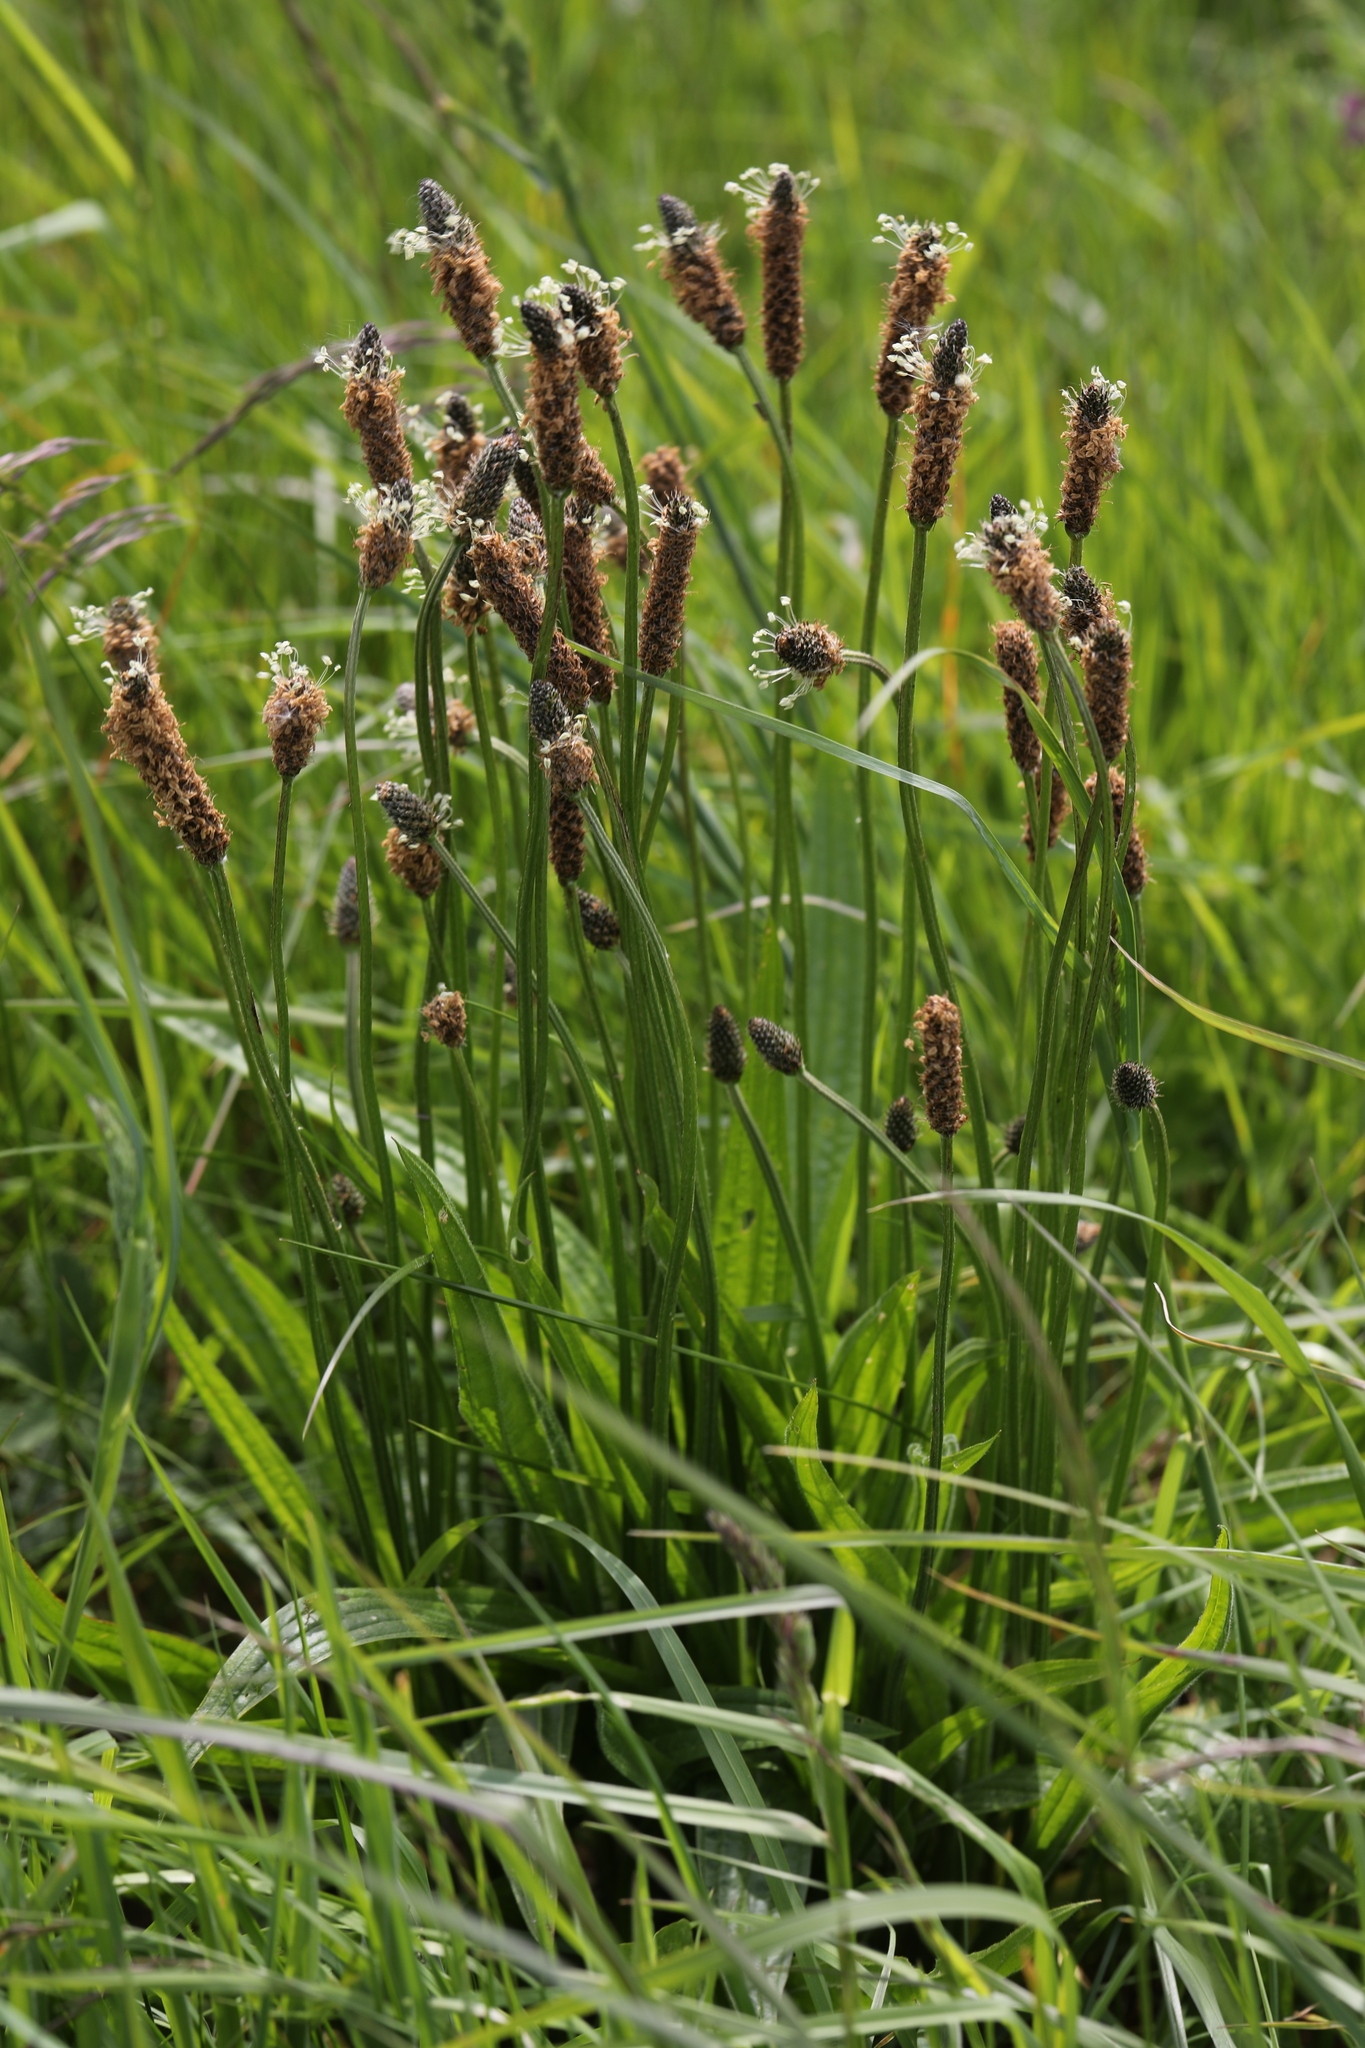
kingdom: Plantae
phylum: Tracheophyta
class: Magnoliopsida
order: Lamiales
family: Plantaginaceae
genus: Plantago
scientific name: Plantago lanceolata
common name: Ribwort plantain
